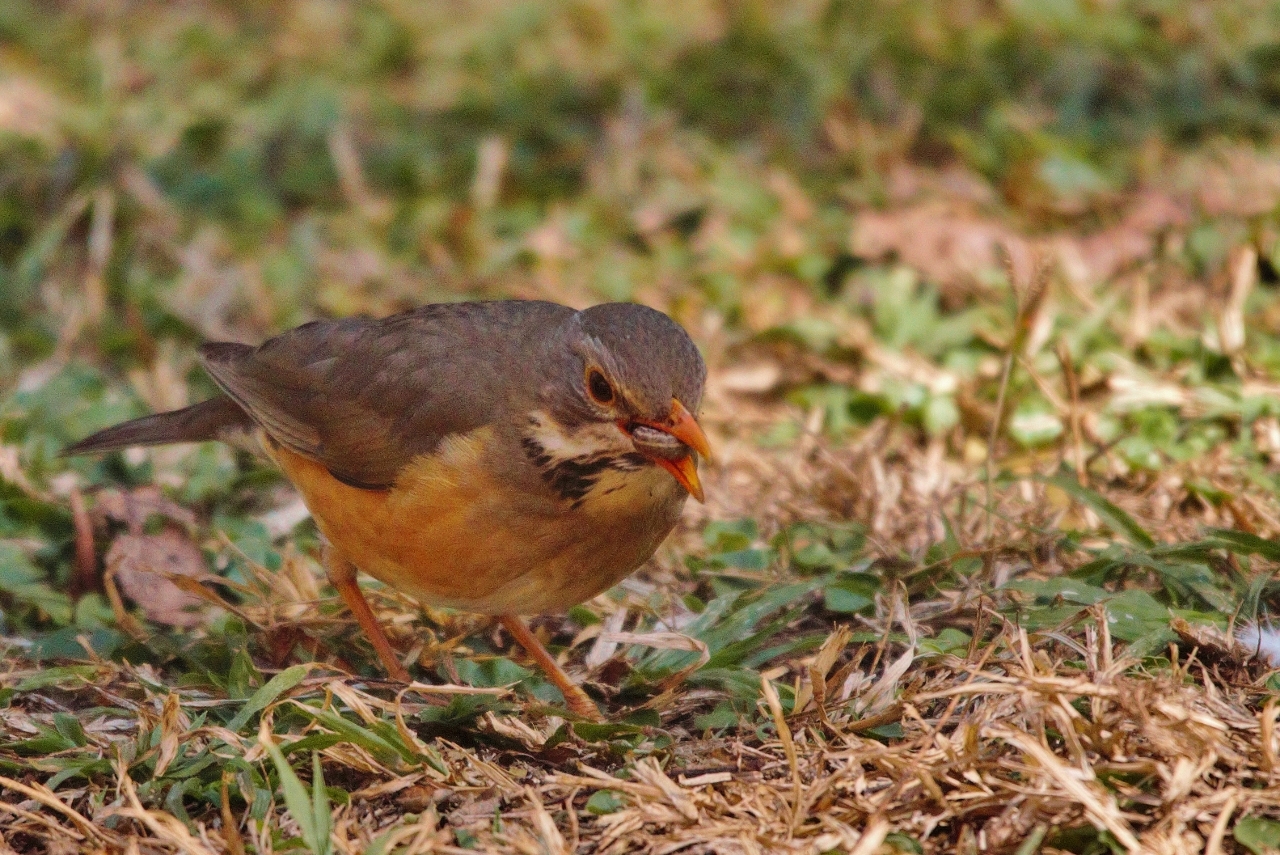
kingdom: Animalia
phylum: Chordata
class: Aves
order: Passeriformes
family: Turdidae
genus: Turdus
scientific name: Turdus libonyana
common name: Kurrichane thrush
